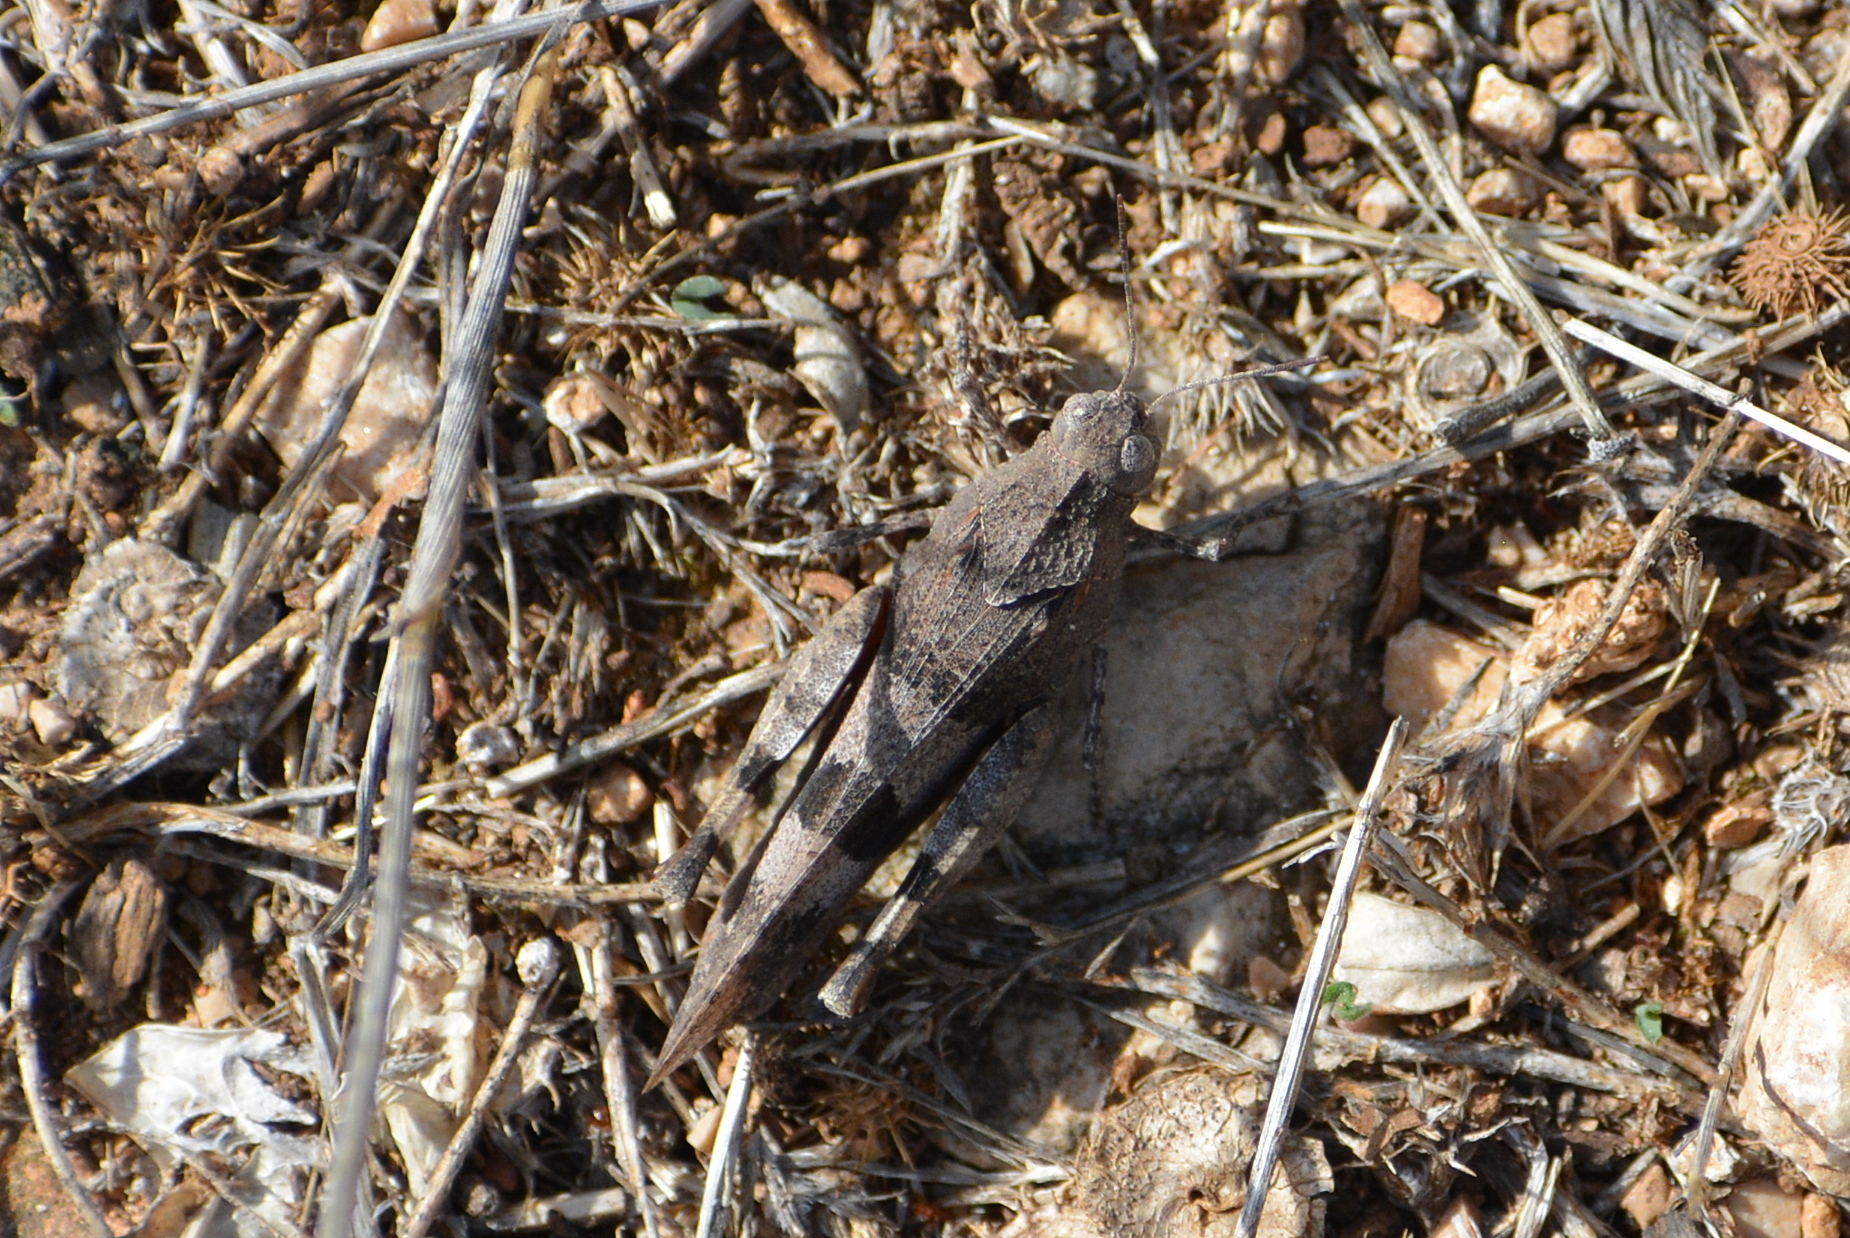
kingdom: Animalia
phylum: Arthropoda
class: Insecta
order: Orthoptera
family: Acrididae
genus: Oedipoda
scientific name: Oedipoda caerulescens
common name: Blue-winged grasshopper
